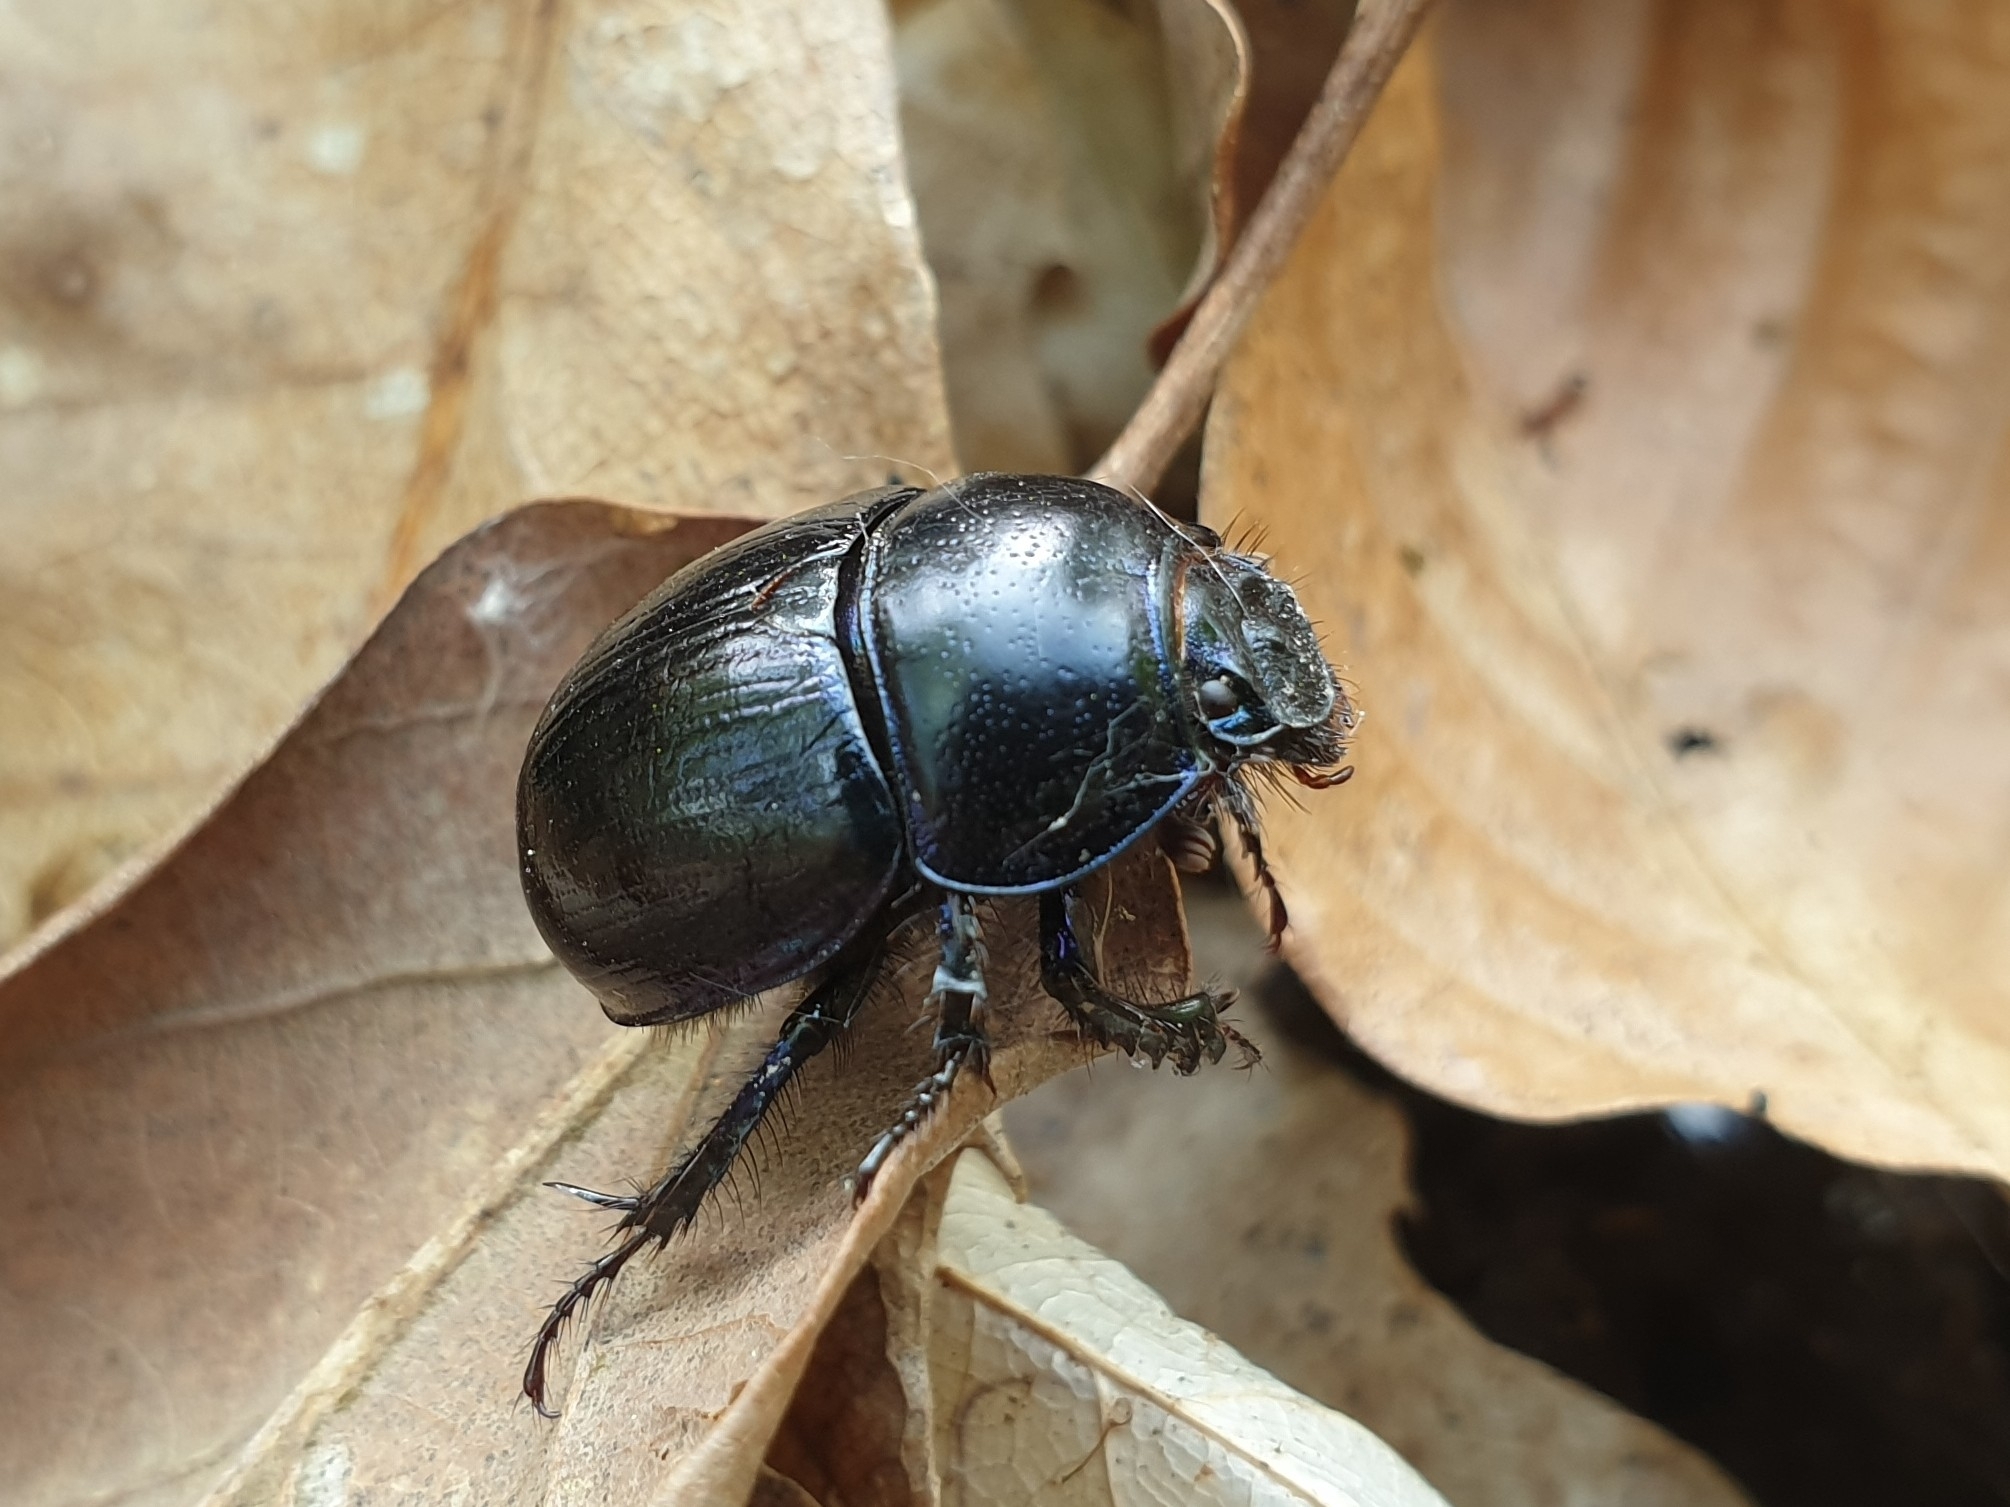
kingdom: Animalia
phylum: Arthropoda
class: Insecta
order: Coleoptera
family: Geotrupidae
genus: Anoplotrupes
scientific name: Anoplotrupes stercorosus
